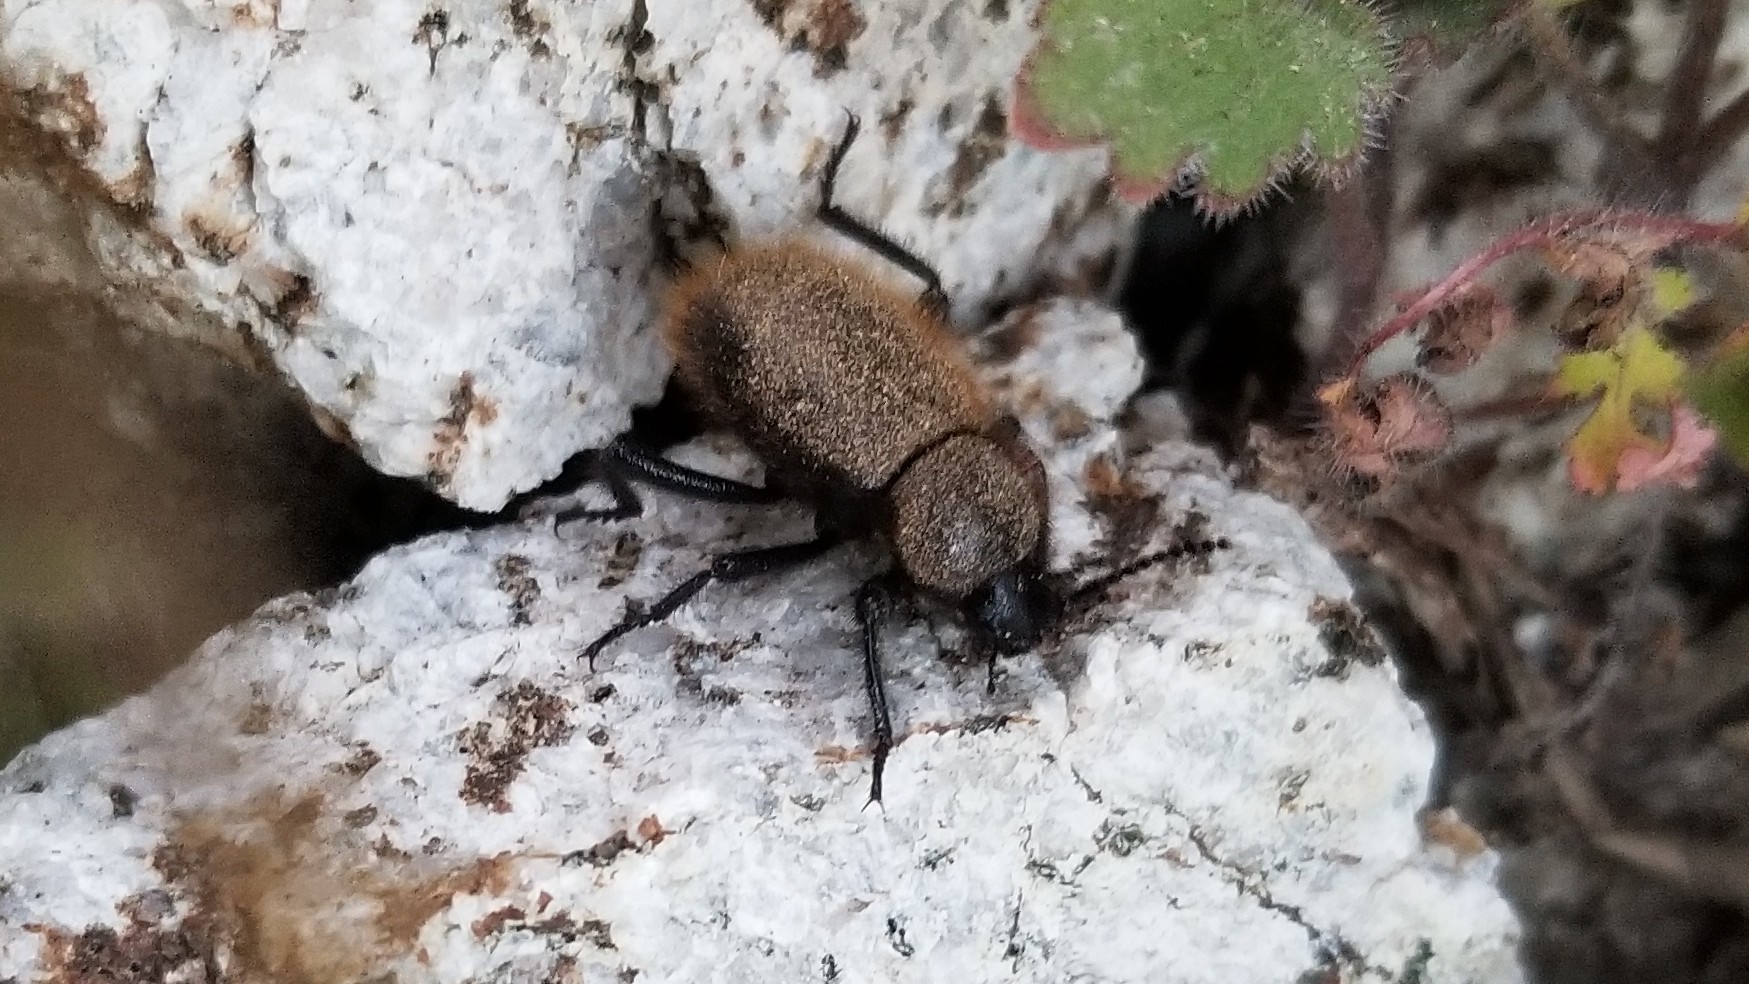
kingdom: Animalia
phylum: Arthropoda
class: Insecta
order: Coleoptera
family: Tenebrionidae
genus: Eleodes
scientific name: Eleodes osculans
